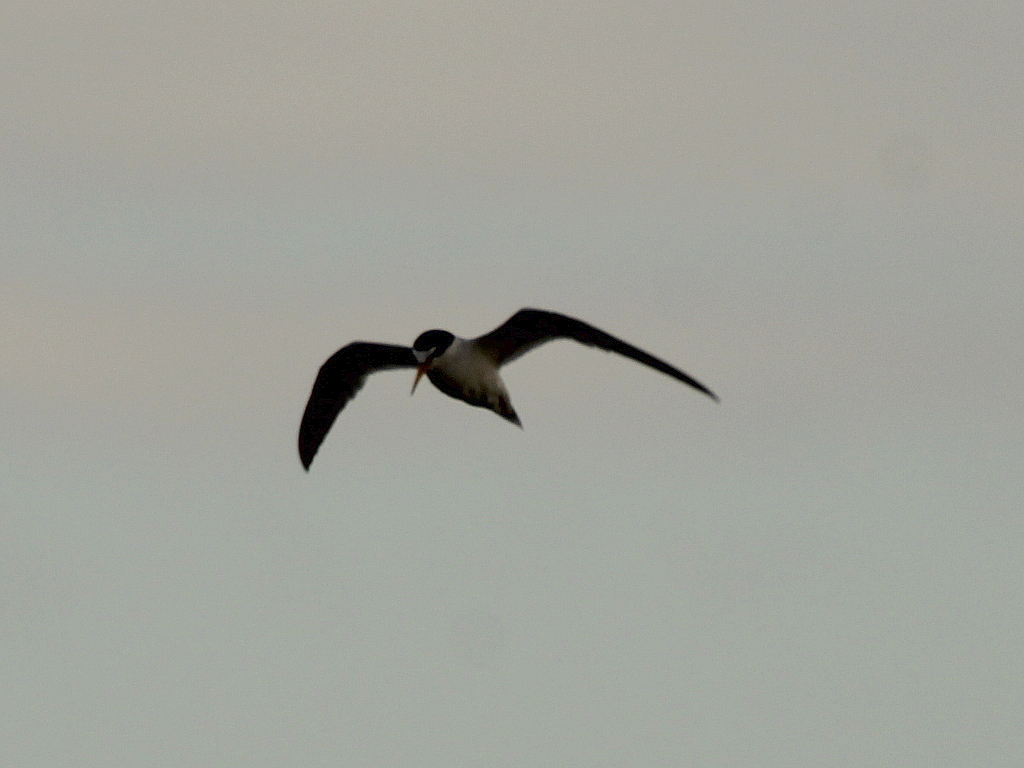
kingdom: Animalia
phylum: Chordata
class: Aves
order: Charadriiformes
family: Laridae
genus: Sternula
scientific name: Sternula albifrons
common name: Little tern
